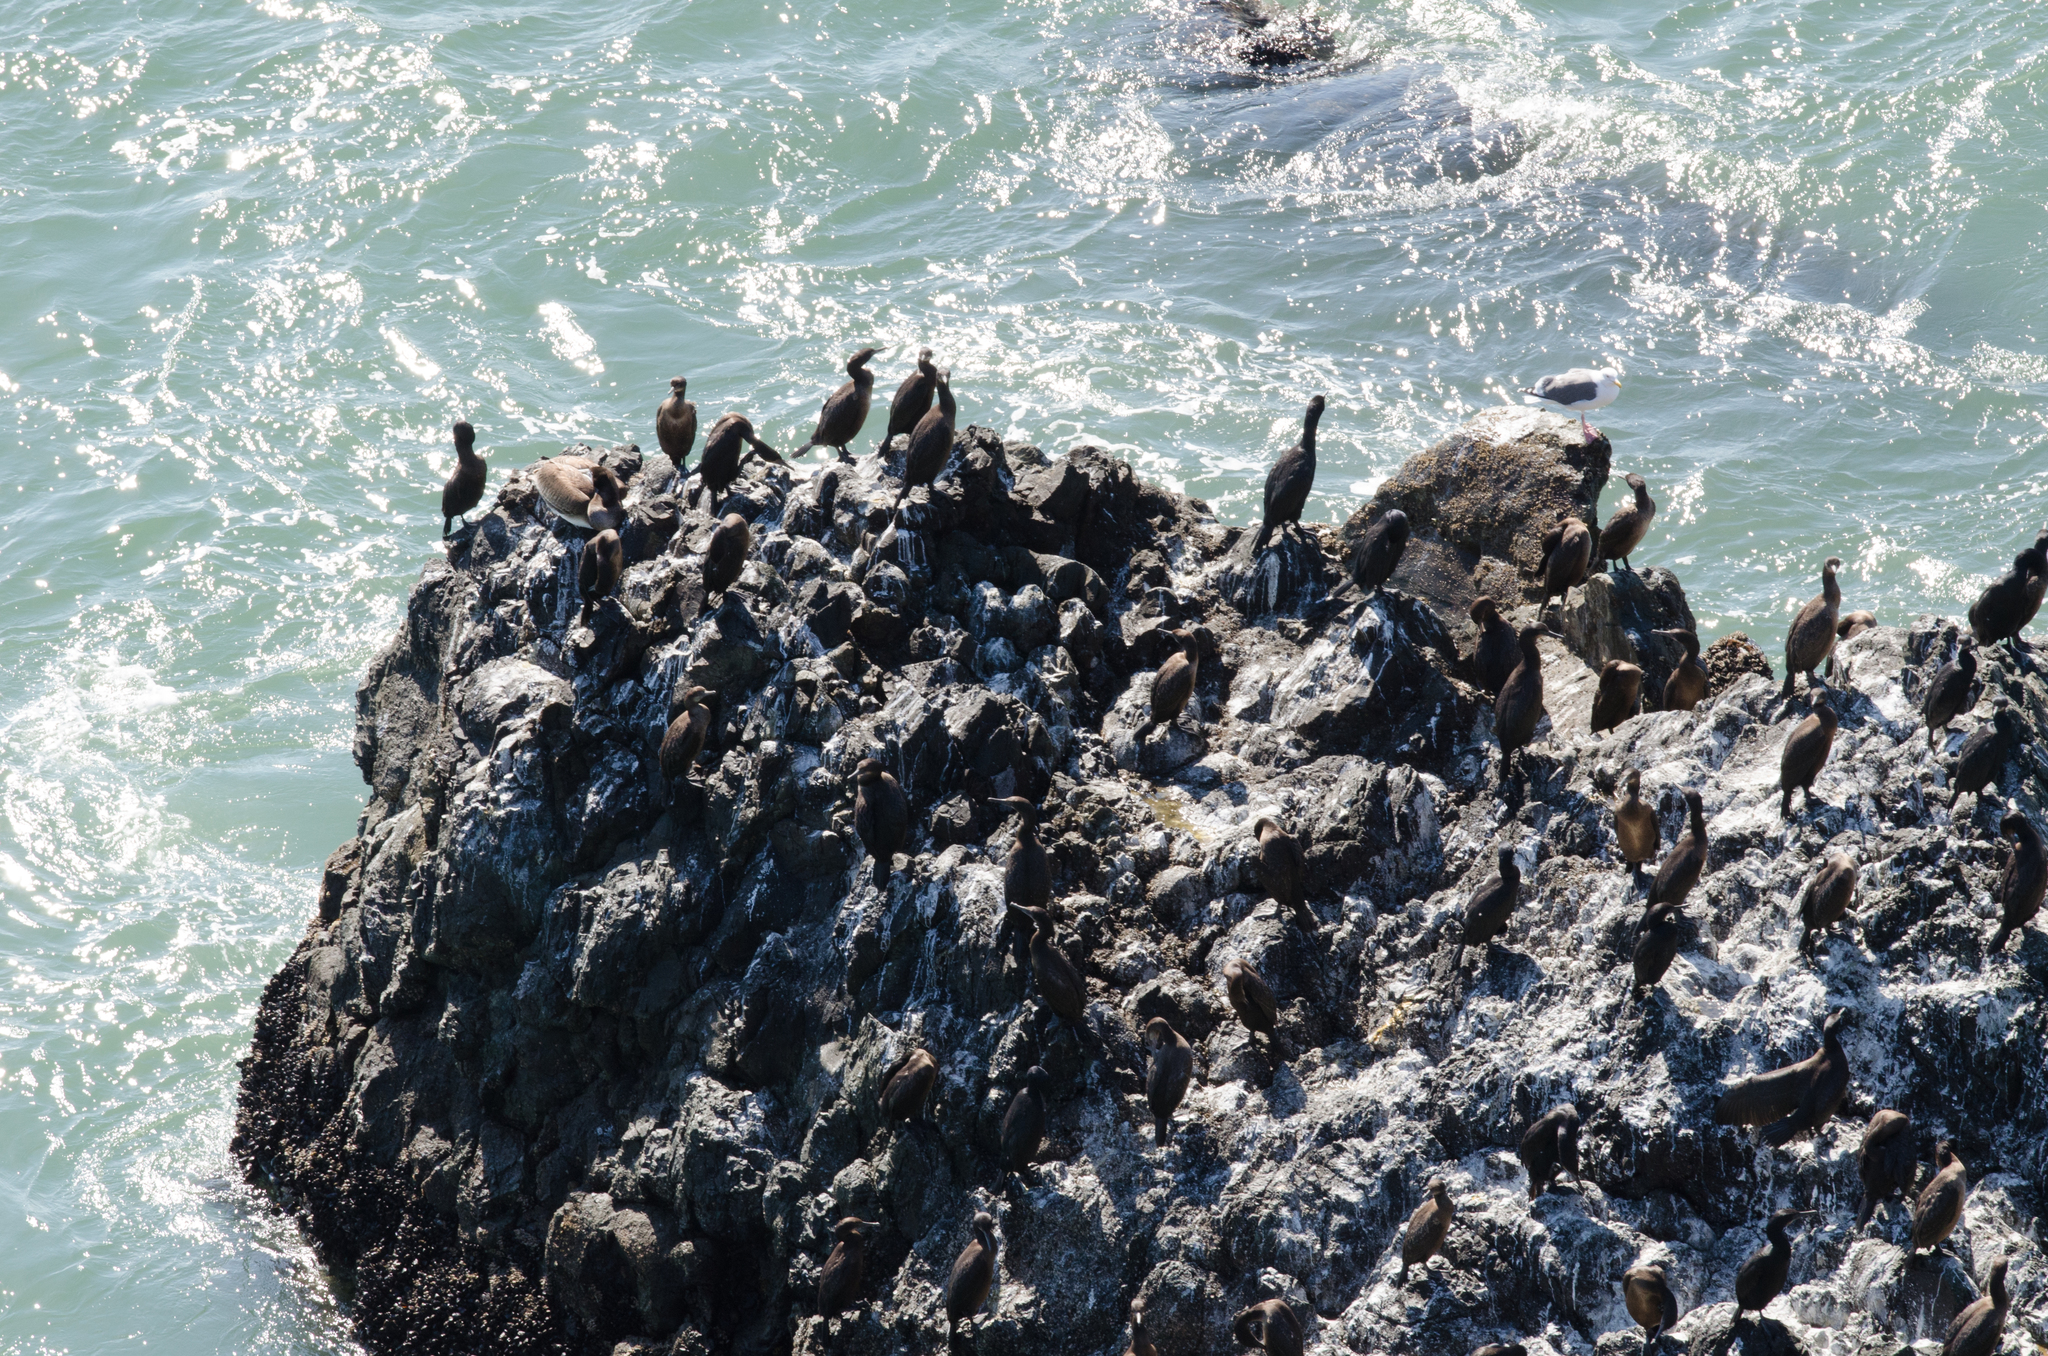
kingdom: Animalia
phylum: Chordata
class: Aves
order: Suliformes
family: Phalacrocoracidae
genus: Urile
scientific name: Urile penicillatus
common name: Brandt's cormorant
